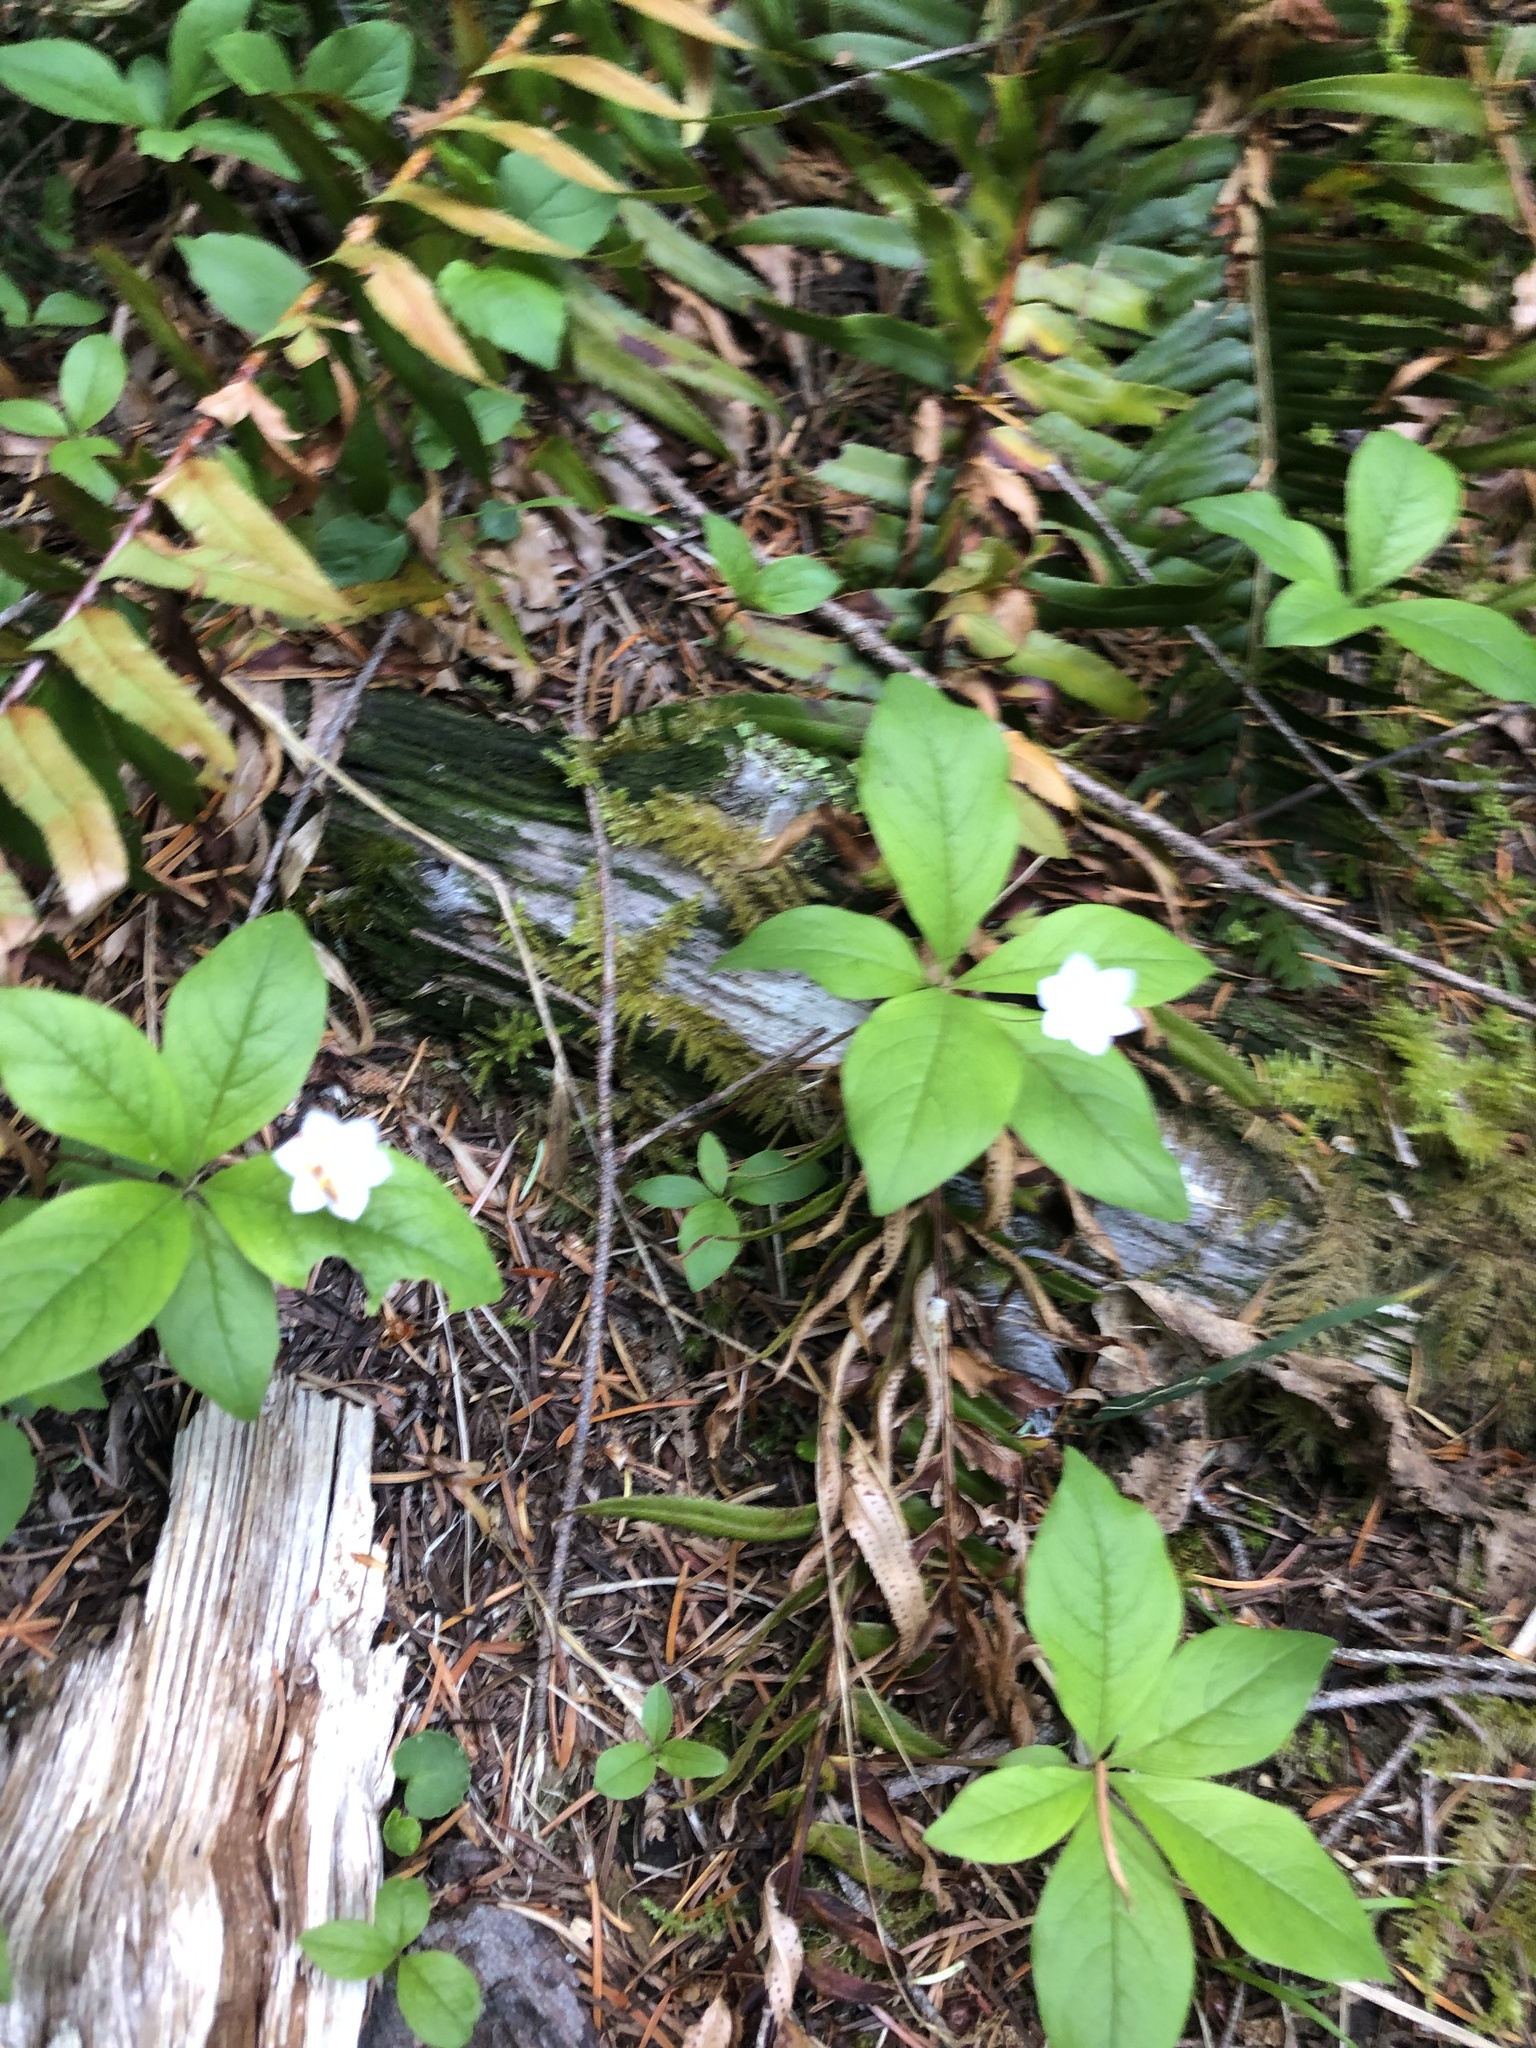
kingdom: Plantae
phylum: Tracheophyta
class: Magnoliopsida
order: Ericales
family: Primulaceae
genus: Lysimachia
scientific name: Lysimachia latifolia
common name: Pacific starflower
